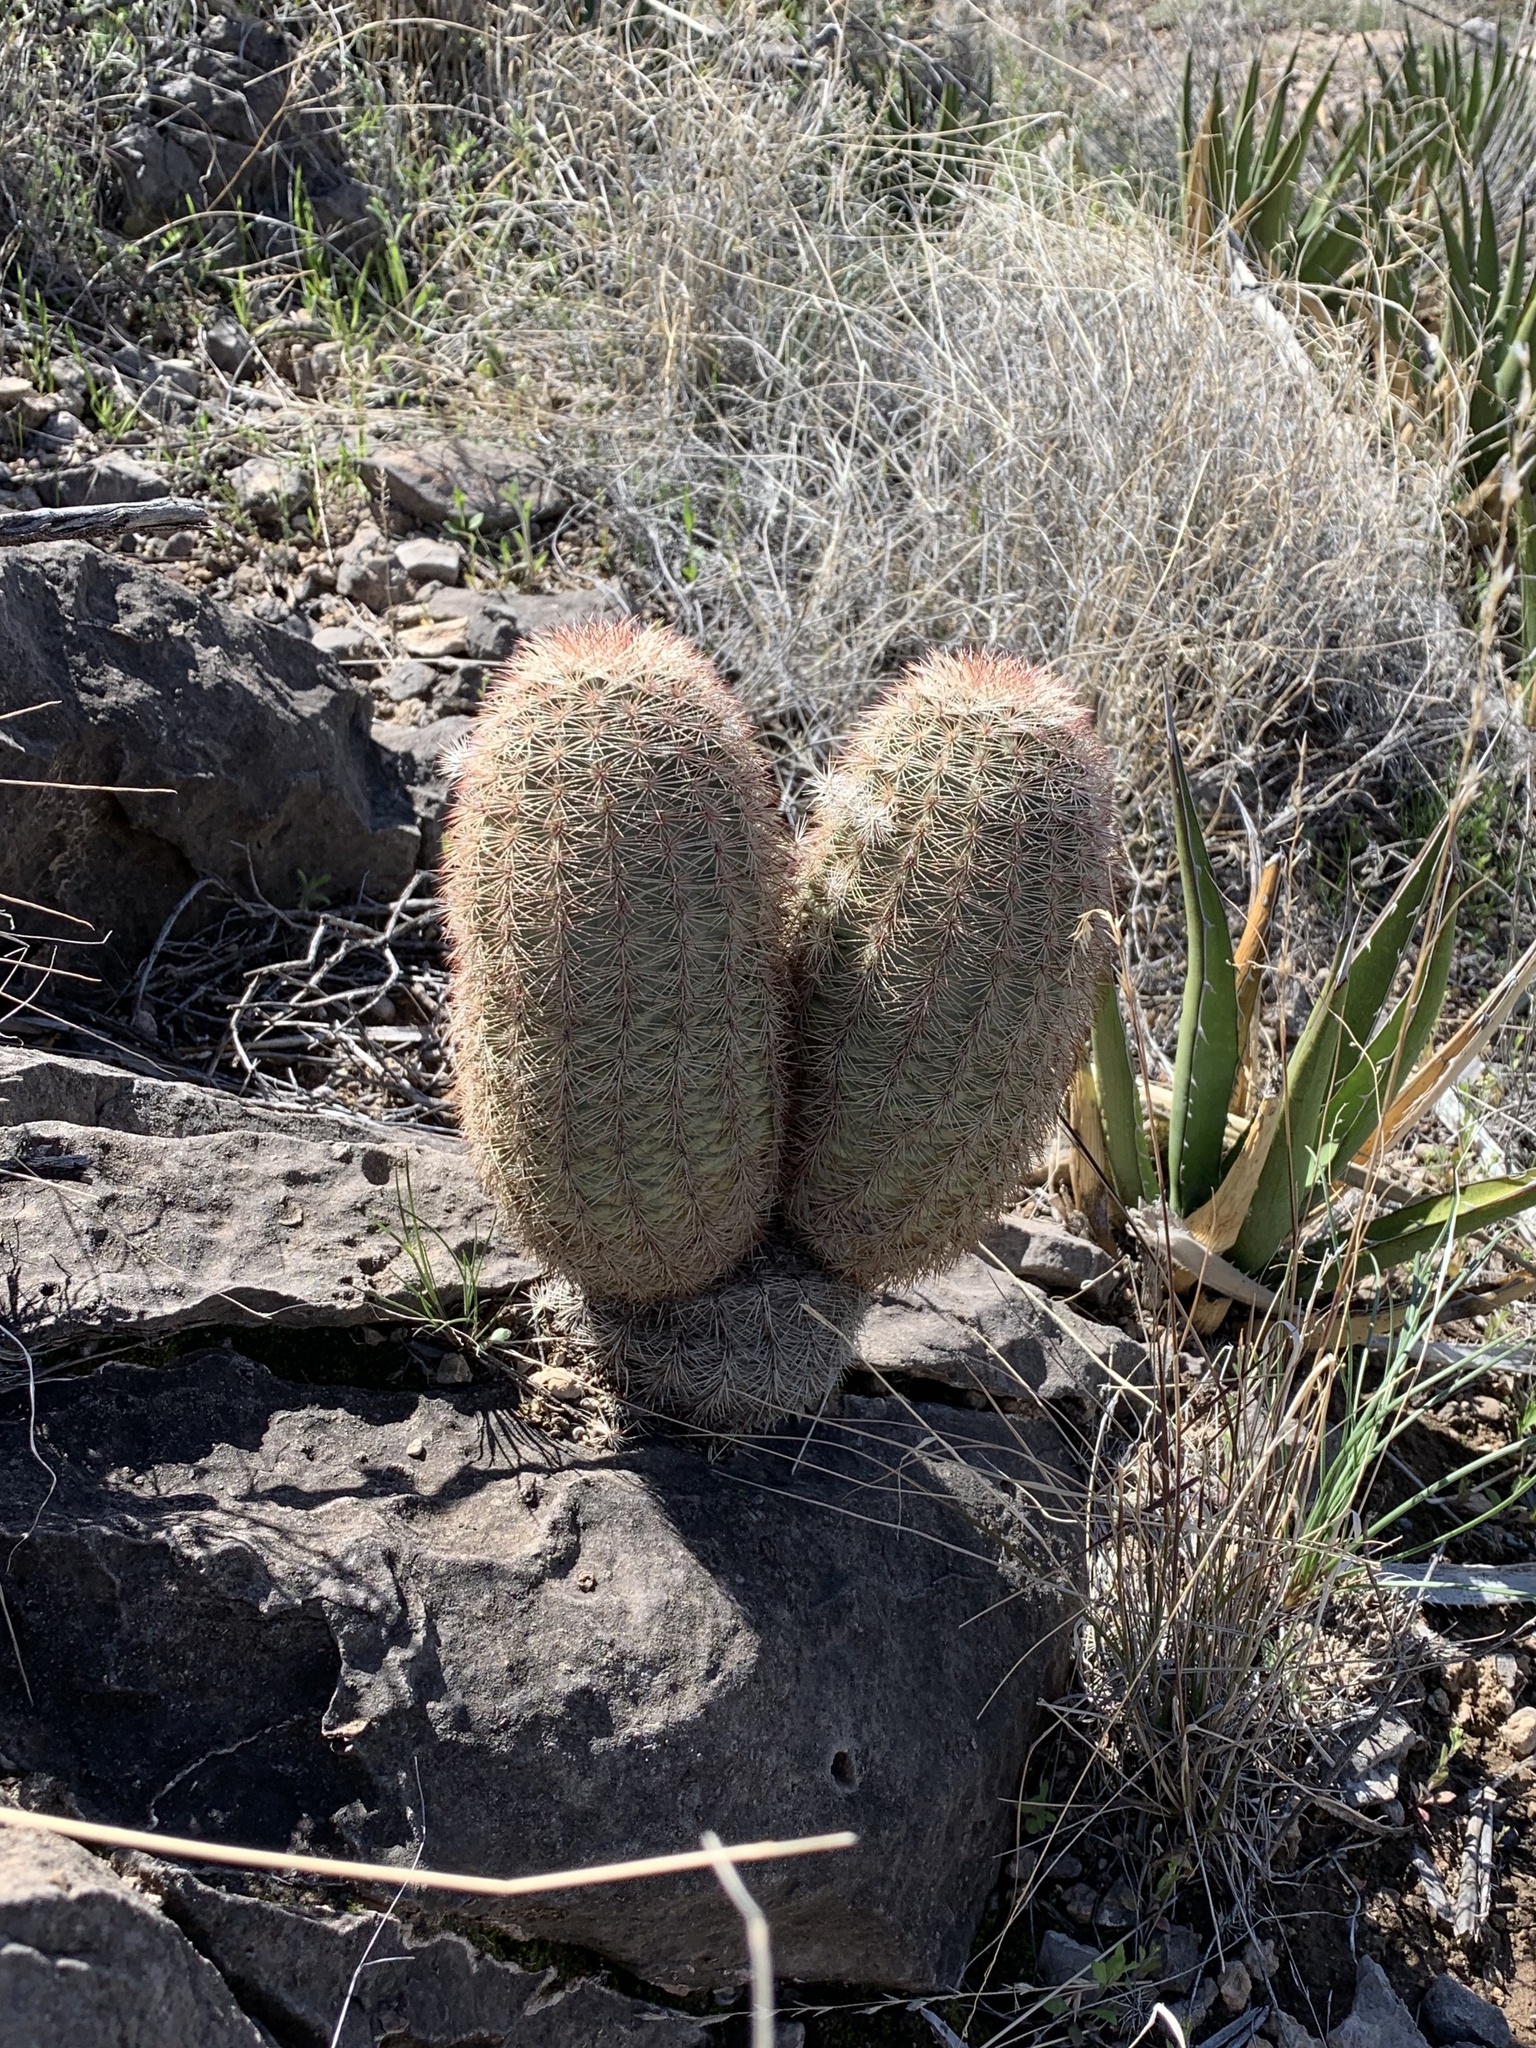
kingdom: Plantae
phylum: Tracheophyta
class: Magnoliopsida
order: Caryophyllales
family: Cactaceae
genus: Echinocereus
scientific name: Echinocereus dasyacanthus
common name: Spiny hedgehog cactus
